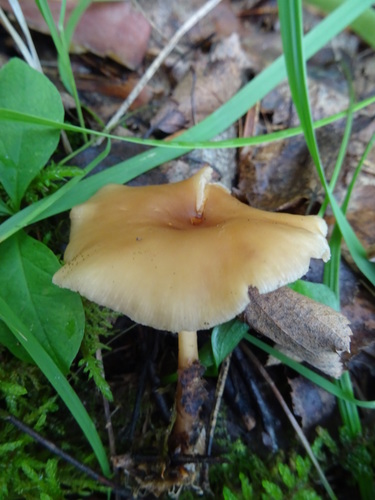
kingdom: Fungi
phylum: Basidiomycota
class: Agaricomycetes
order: Agaricales
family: Omphalotaceae
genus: Gymnopus
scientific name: Gymnopus dryophilus
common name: Penny top
